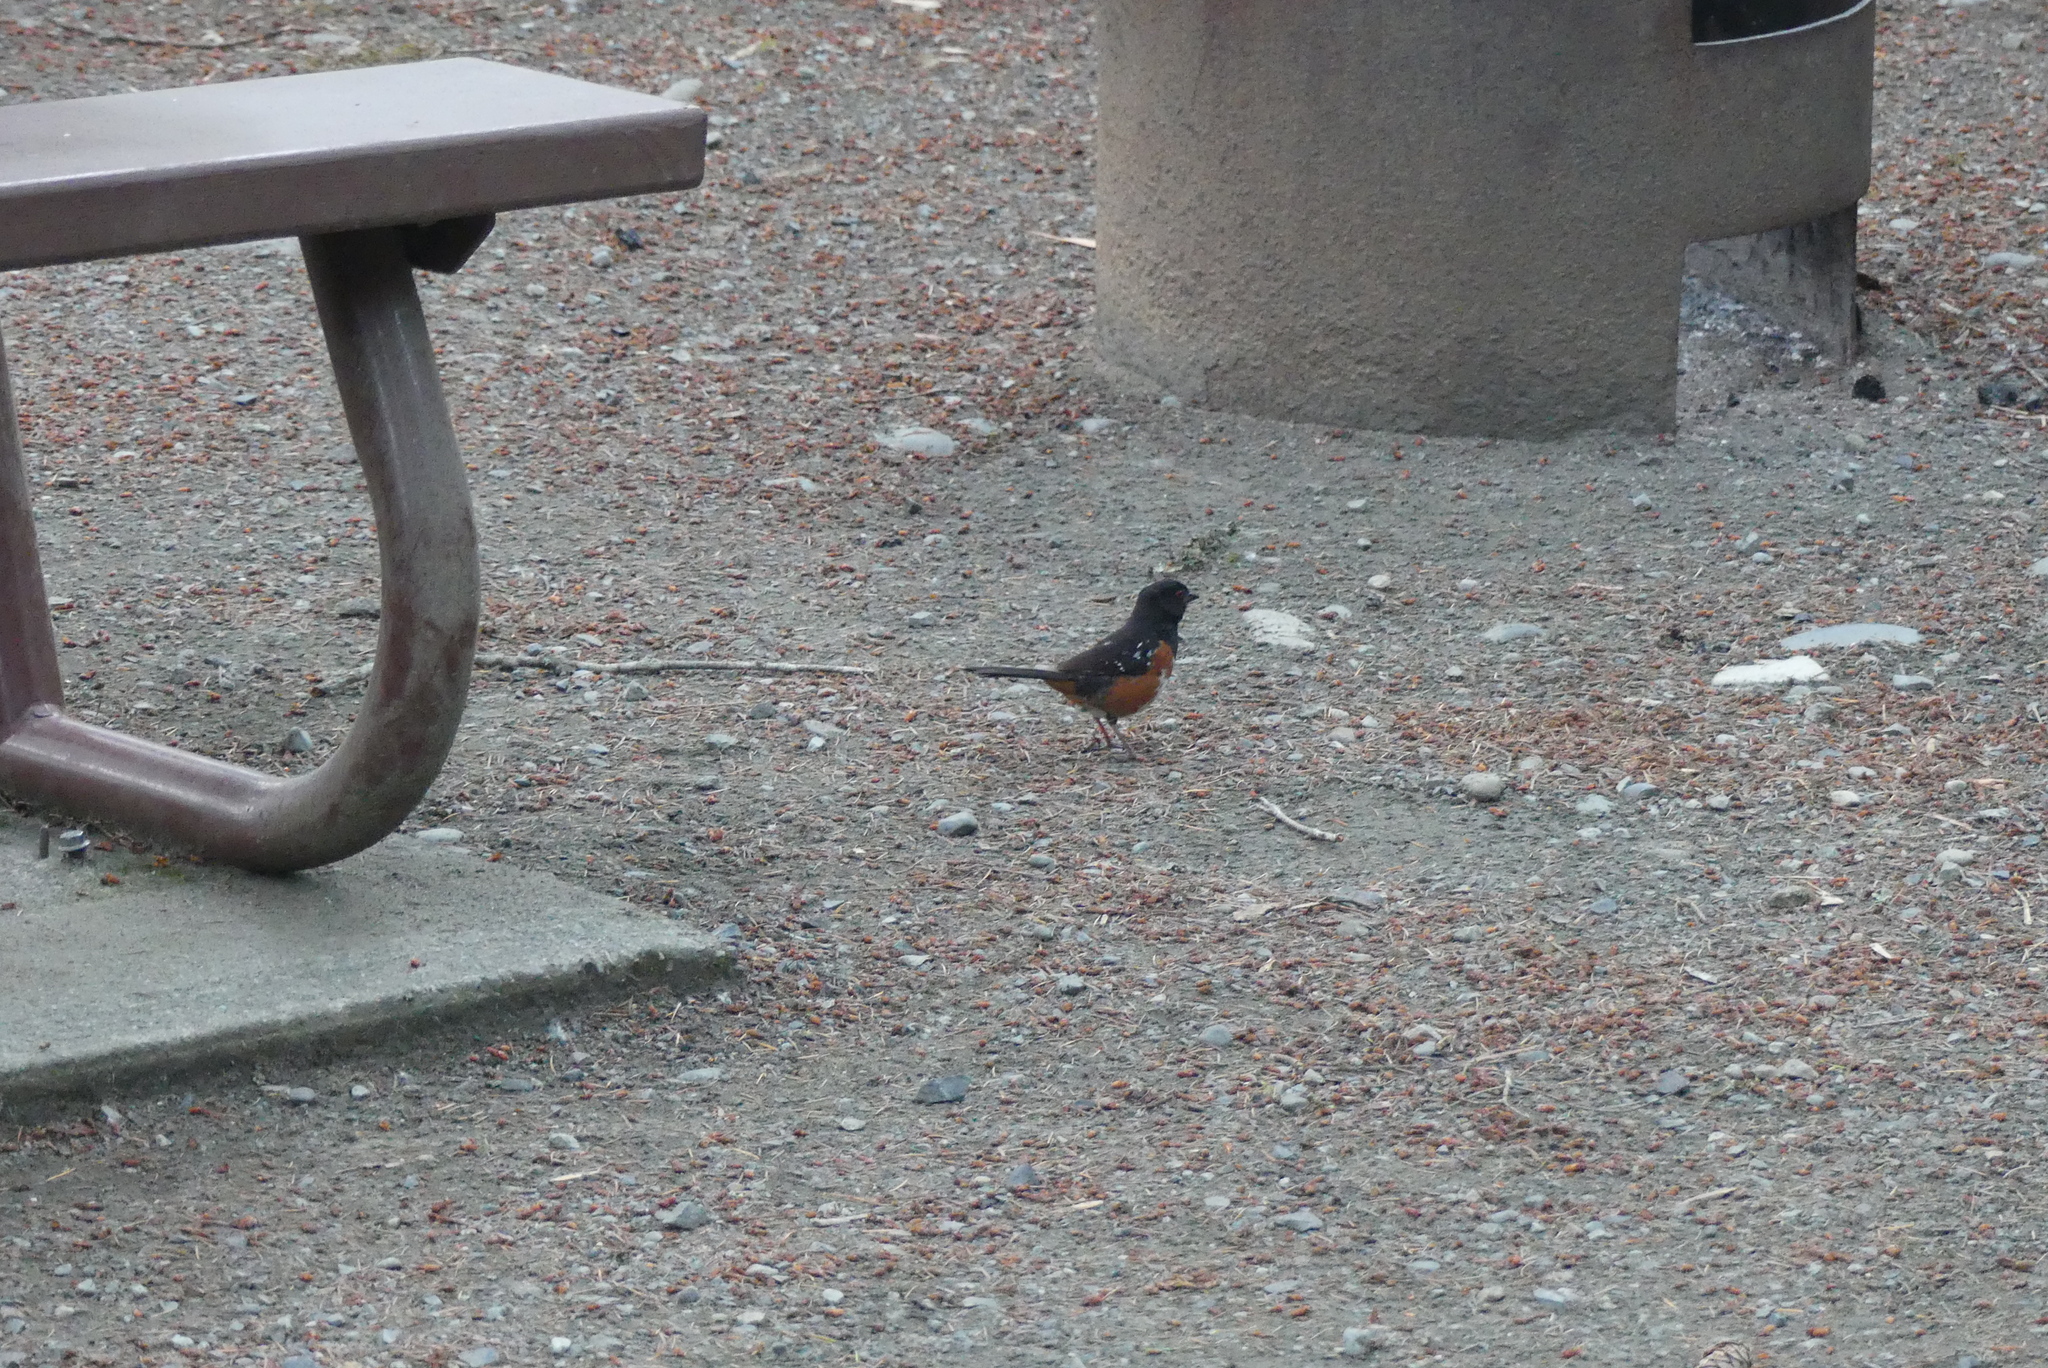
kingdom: Animalia
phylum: Chordata
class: Aves
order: Passeriformes
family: Passerellidae
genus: Pipilo
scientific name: Pipilo maculatus
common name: Spotted towhee
